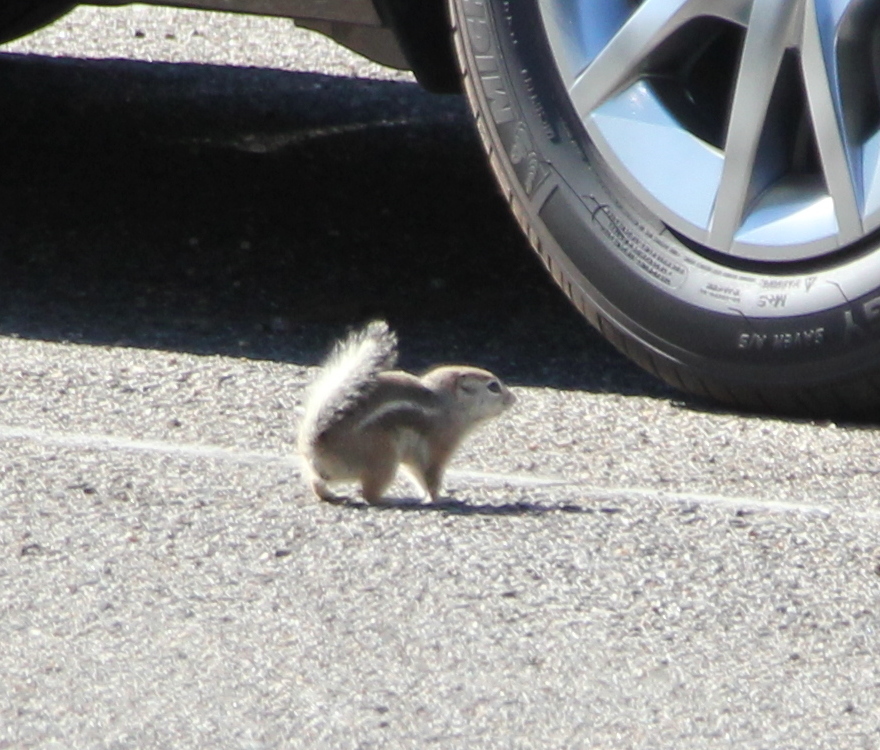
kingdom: Animalia
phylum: Chordata
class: Mammalia
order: Rodentia
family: Sciuridae
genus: Ammospermophilus
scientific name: Ammospermophilus leucurus
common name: White-tailed antelope squirrel
